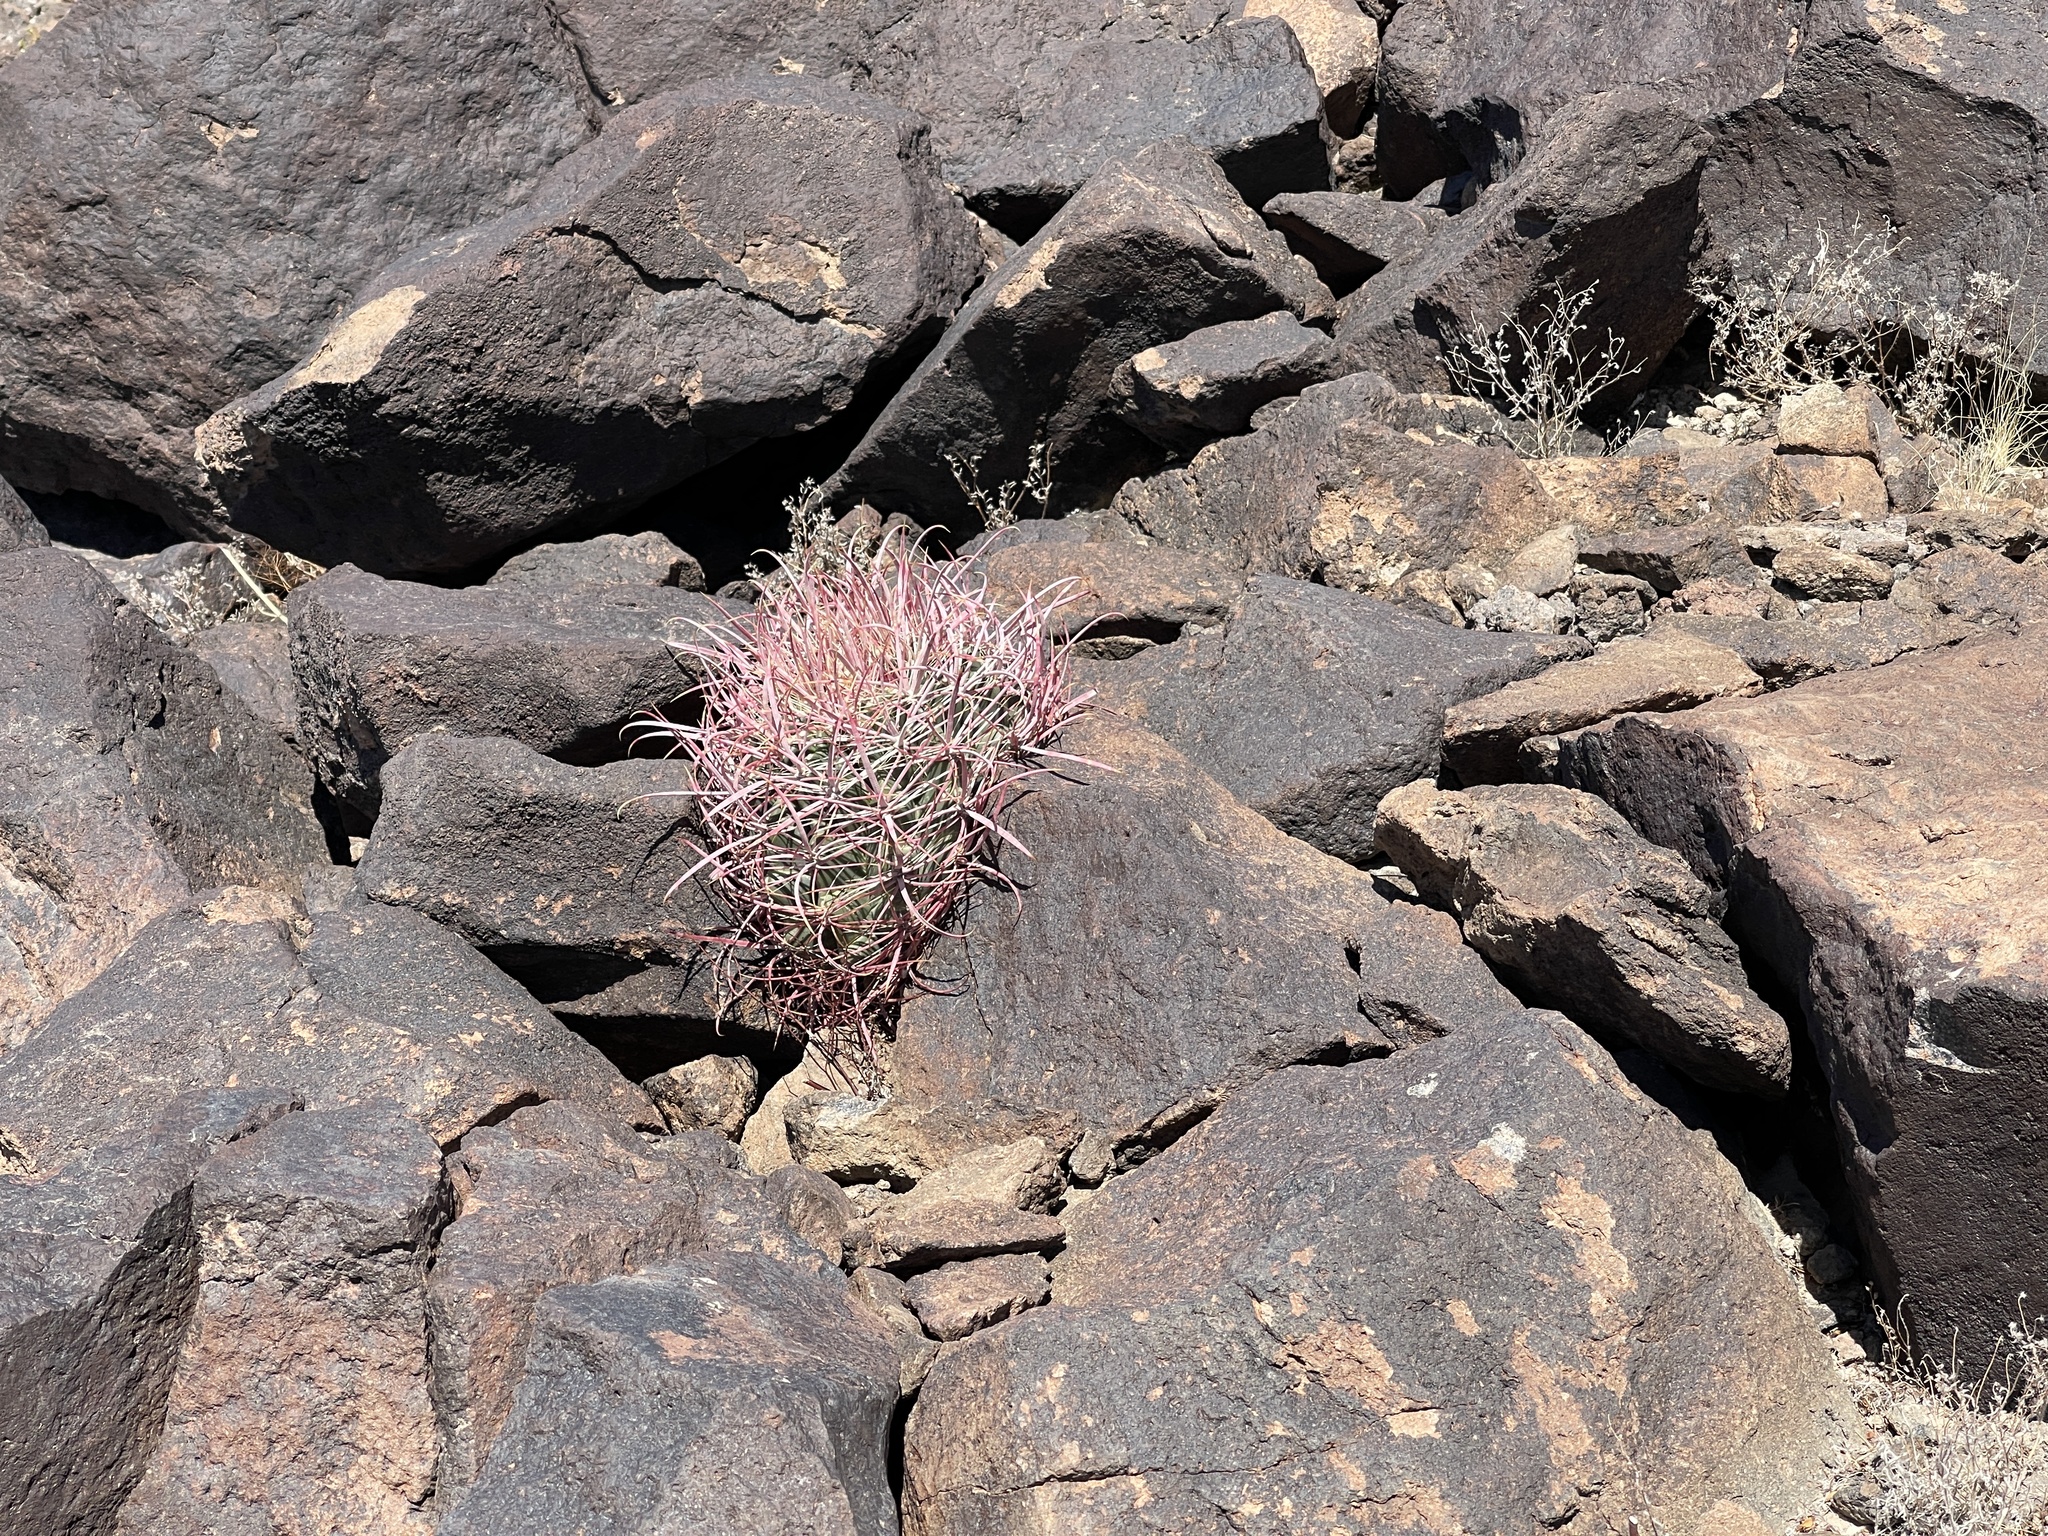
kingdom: Plantae
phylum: Tracheophyta
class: Magnoliopsida
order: Caryophyllales
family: Cactaceae
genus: Ferocactus
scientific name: Ferocactus cylindraceus
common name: California barrel cactus
